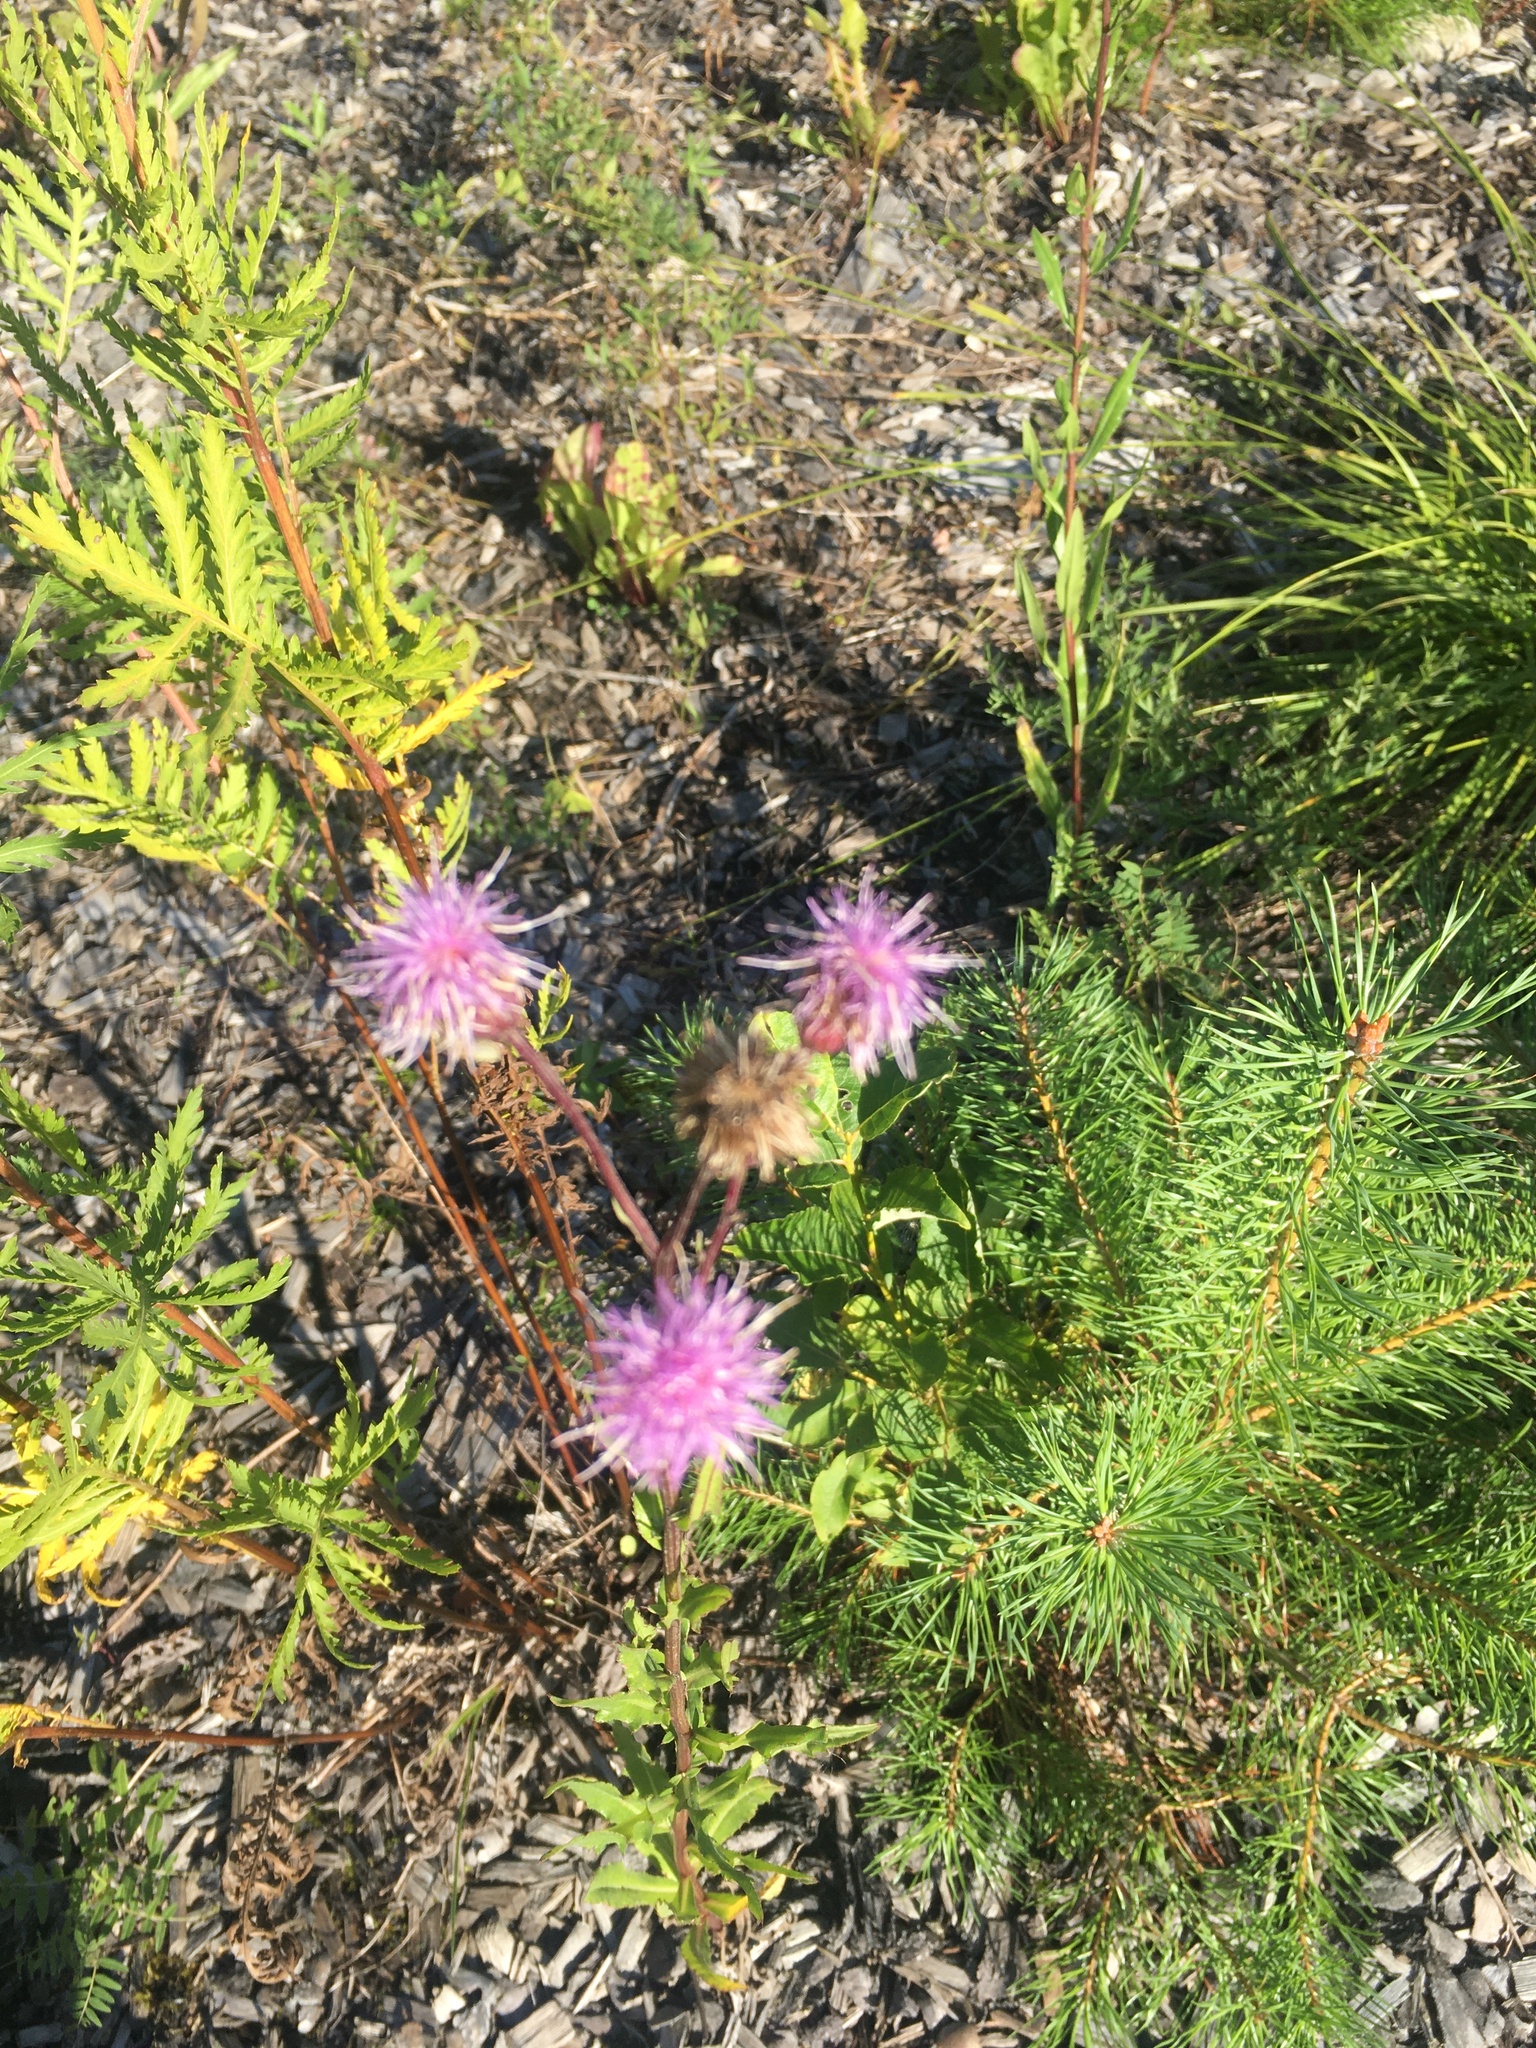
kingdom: Plantae
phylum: Tracheophyta
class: Magnoliopsida
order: Asterales
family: Asteraceae
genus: Cirsium
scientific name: Cirsium arvense
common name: Creeping thistle
